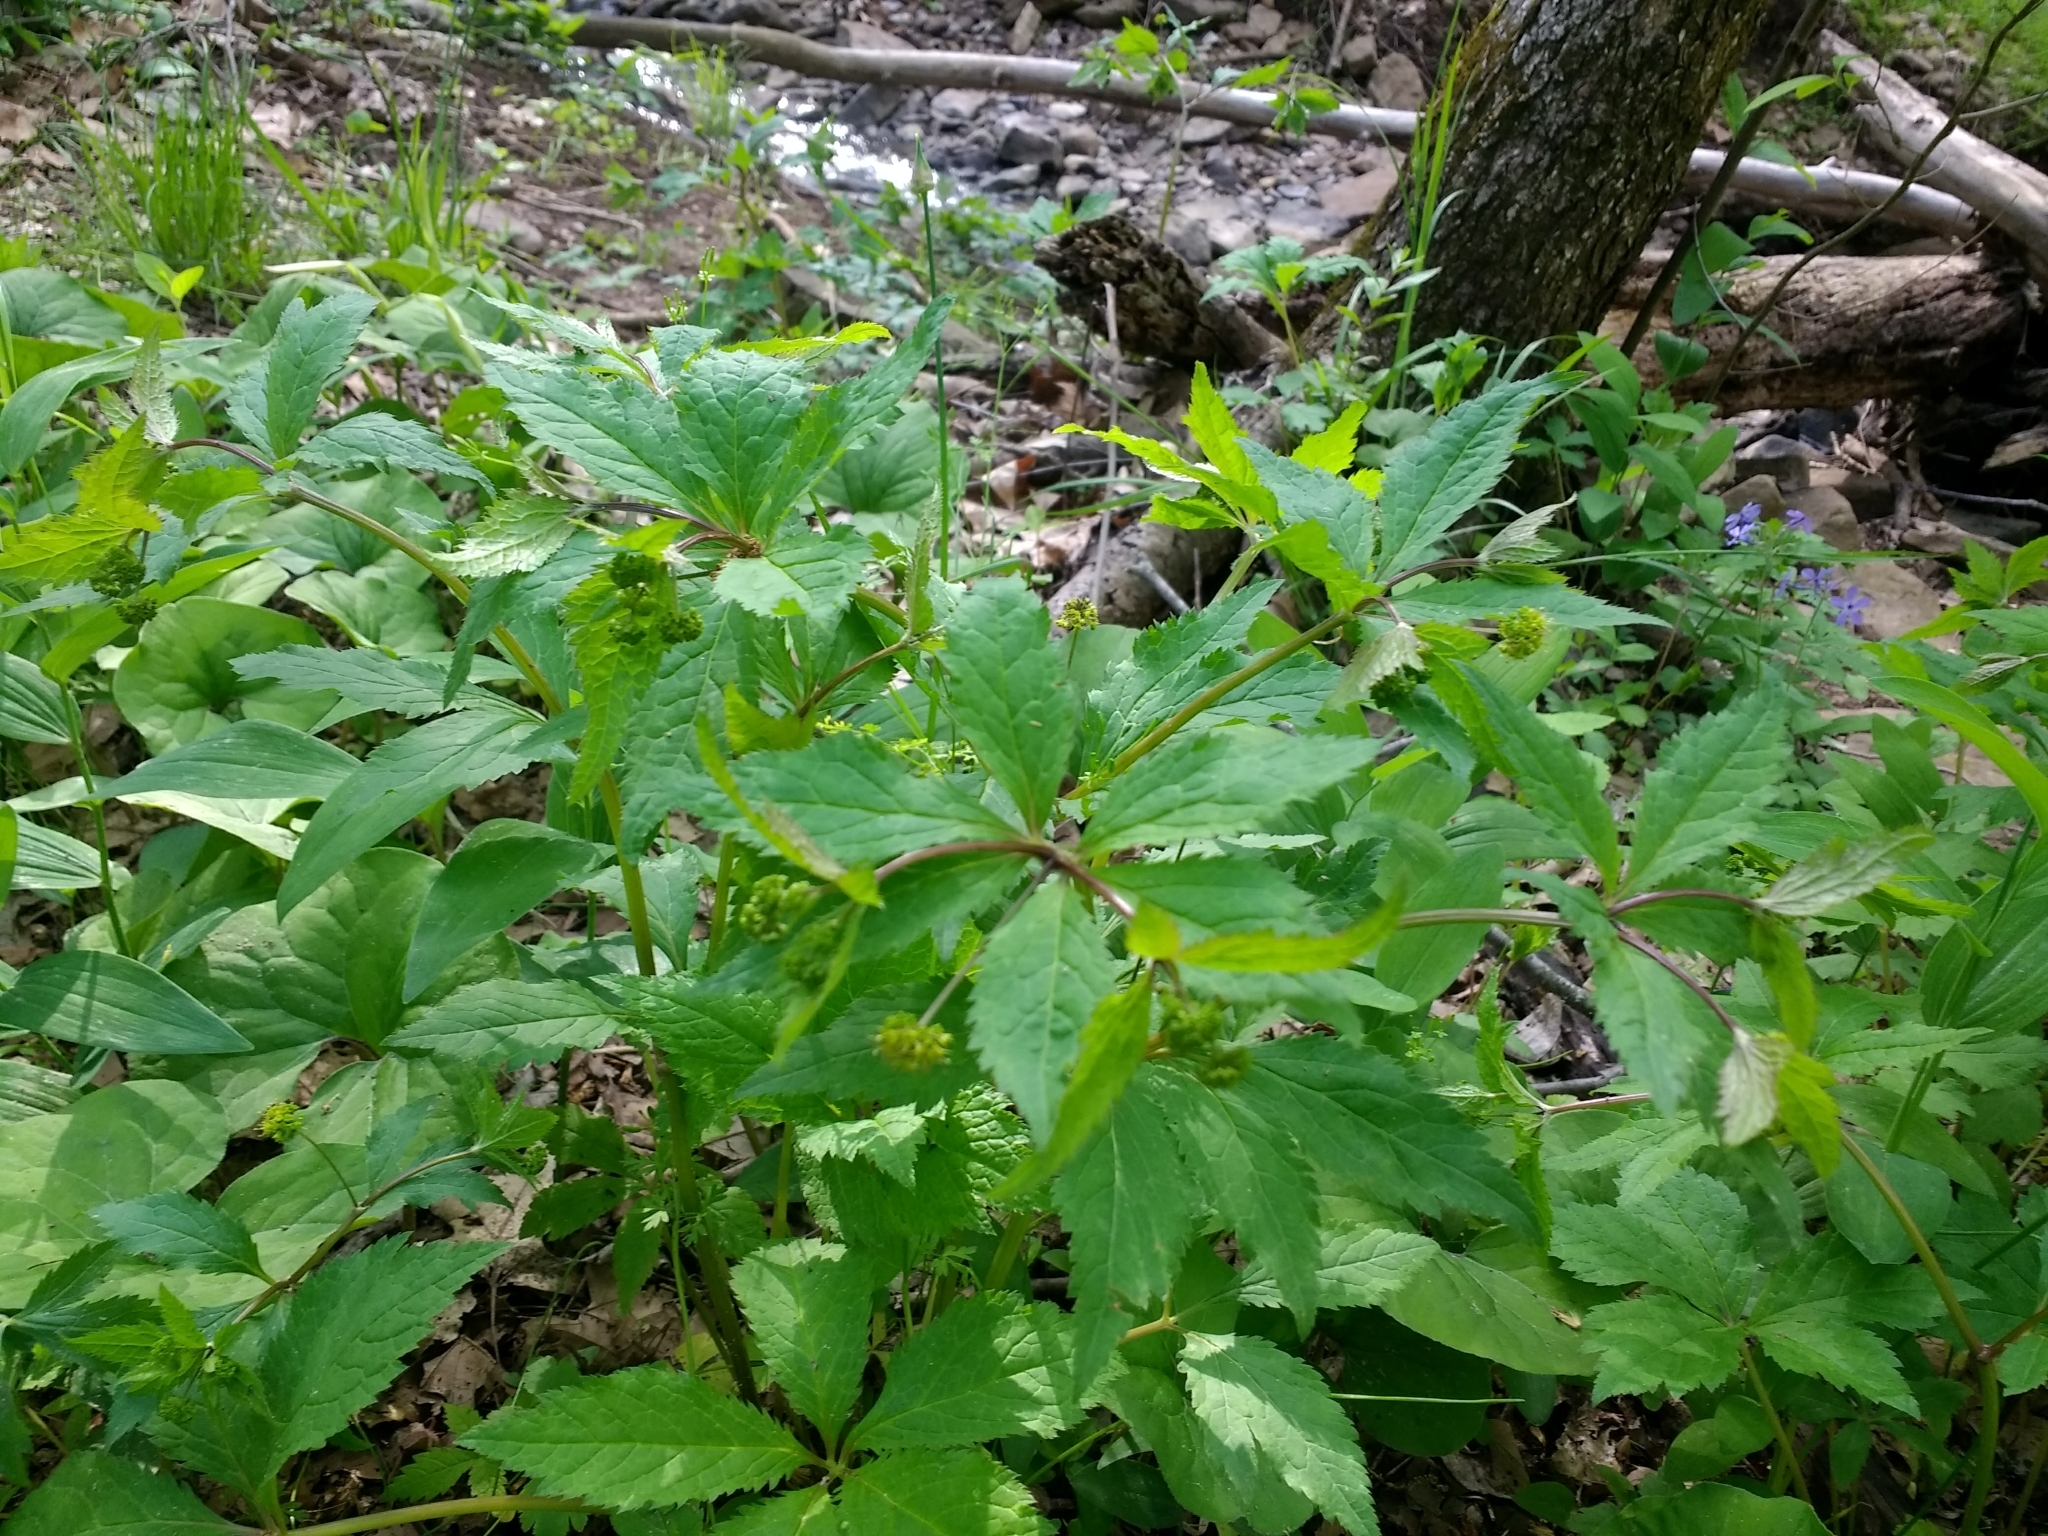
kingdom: Plantae
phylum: Tracheophyta
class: Magnoliopsida
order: Apiales
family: Apiaceae
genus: Sanicula
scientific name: Sanicula odorata
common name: Cluster sanicle
